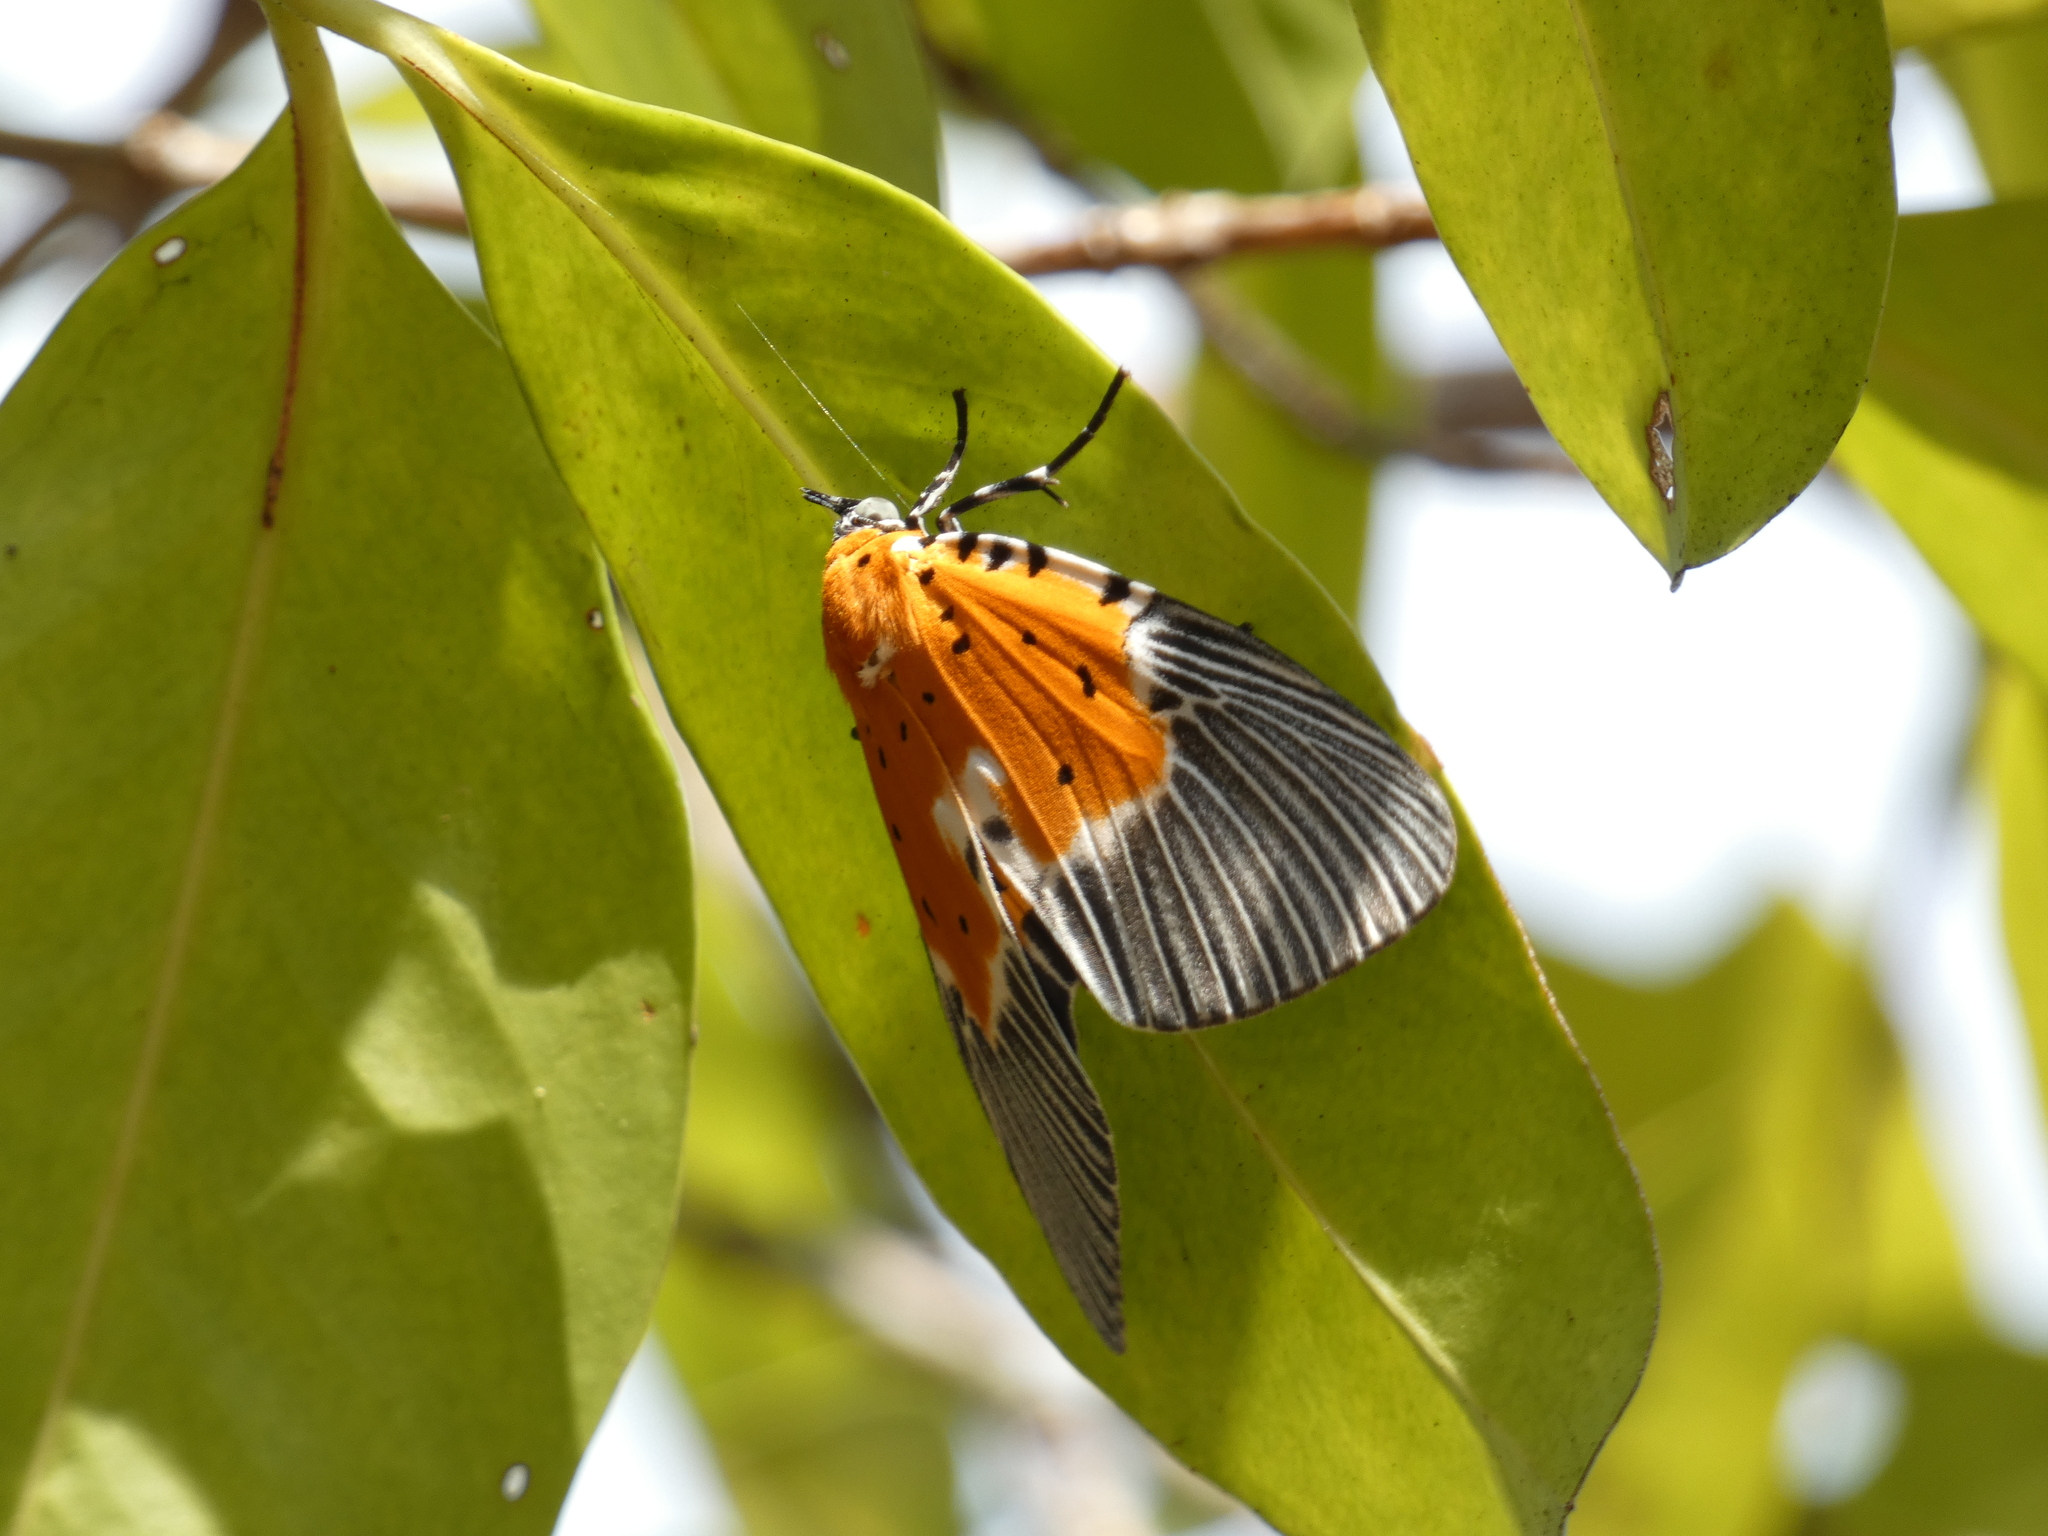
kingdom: Animalia
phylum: Arthropoda
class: Insecta
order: Lepidoptera
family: Erebidae
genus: Peridrome
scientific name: Peridrome orbicularis
